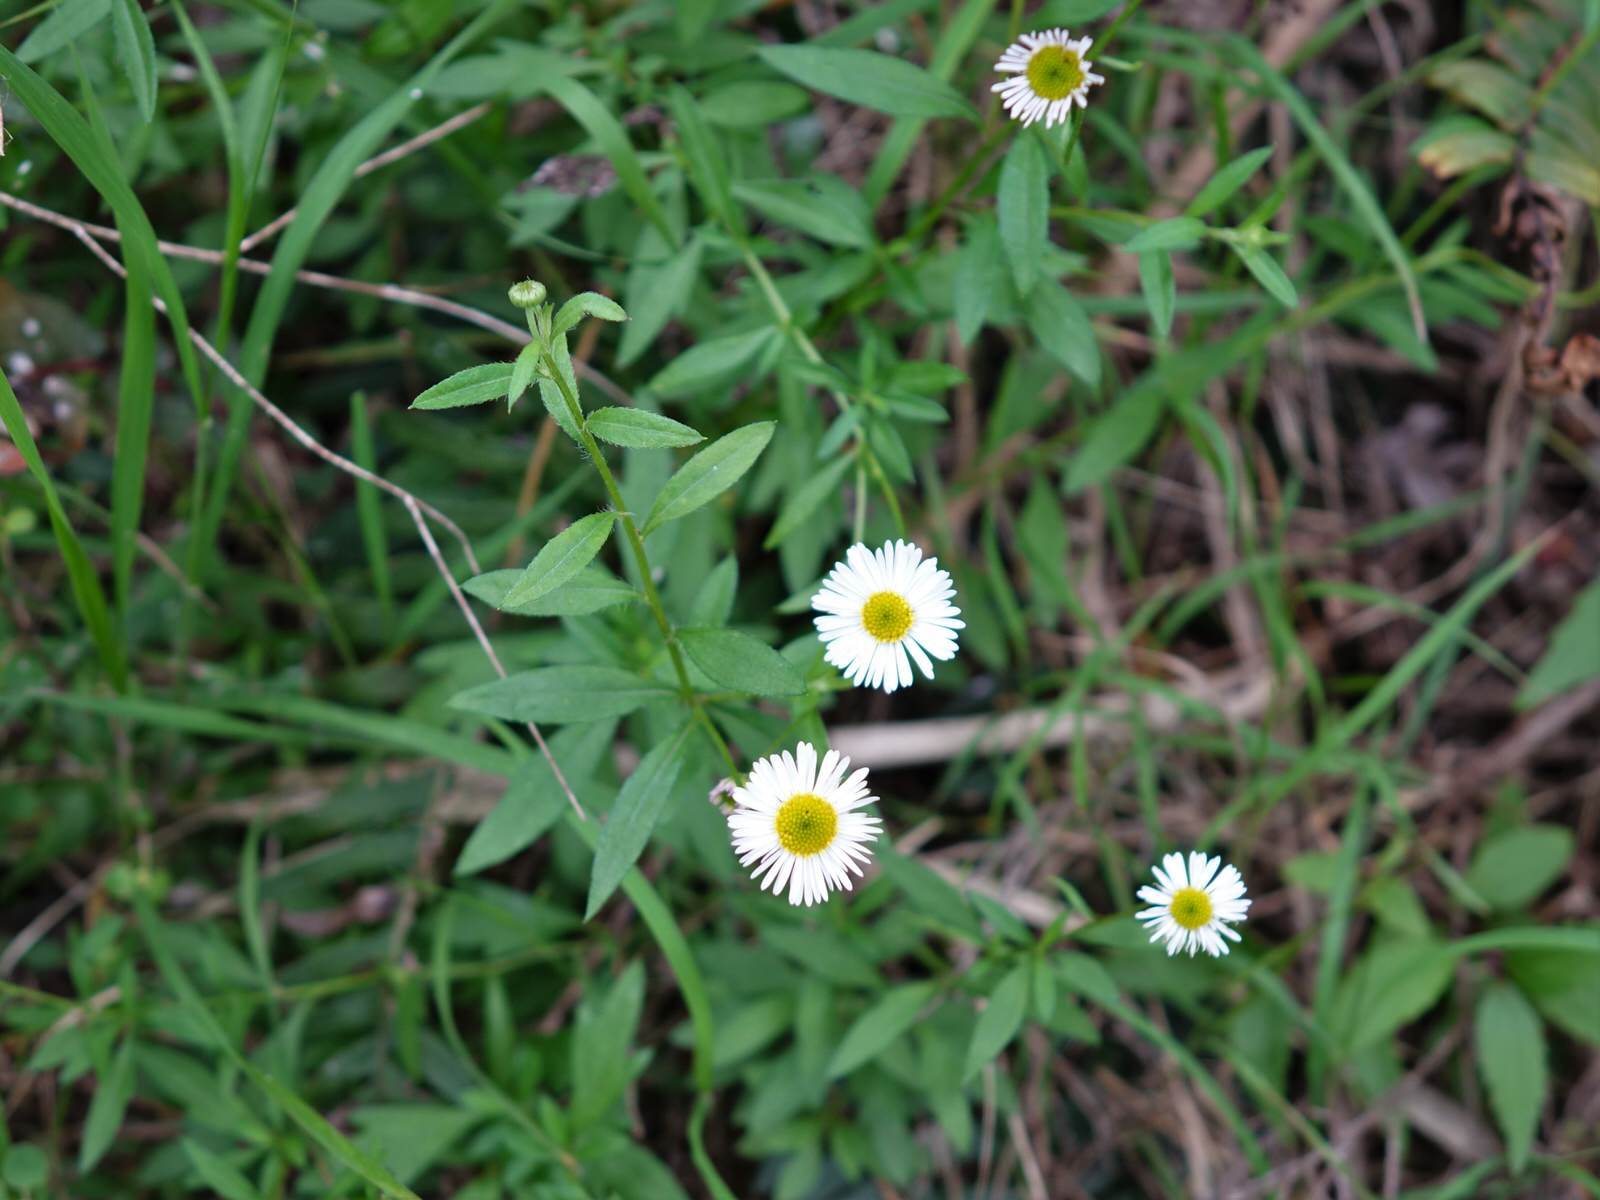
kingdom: Plantae
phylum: Tracheophyta
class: Magnoliopsida
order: Asterales
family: Asteraceae
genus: Erigeron
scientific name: Erigeron karvinskianus
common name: Mexican fleabane
